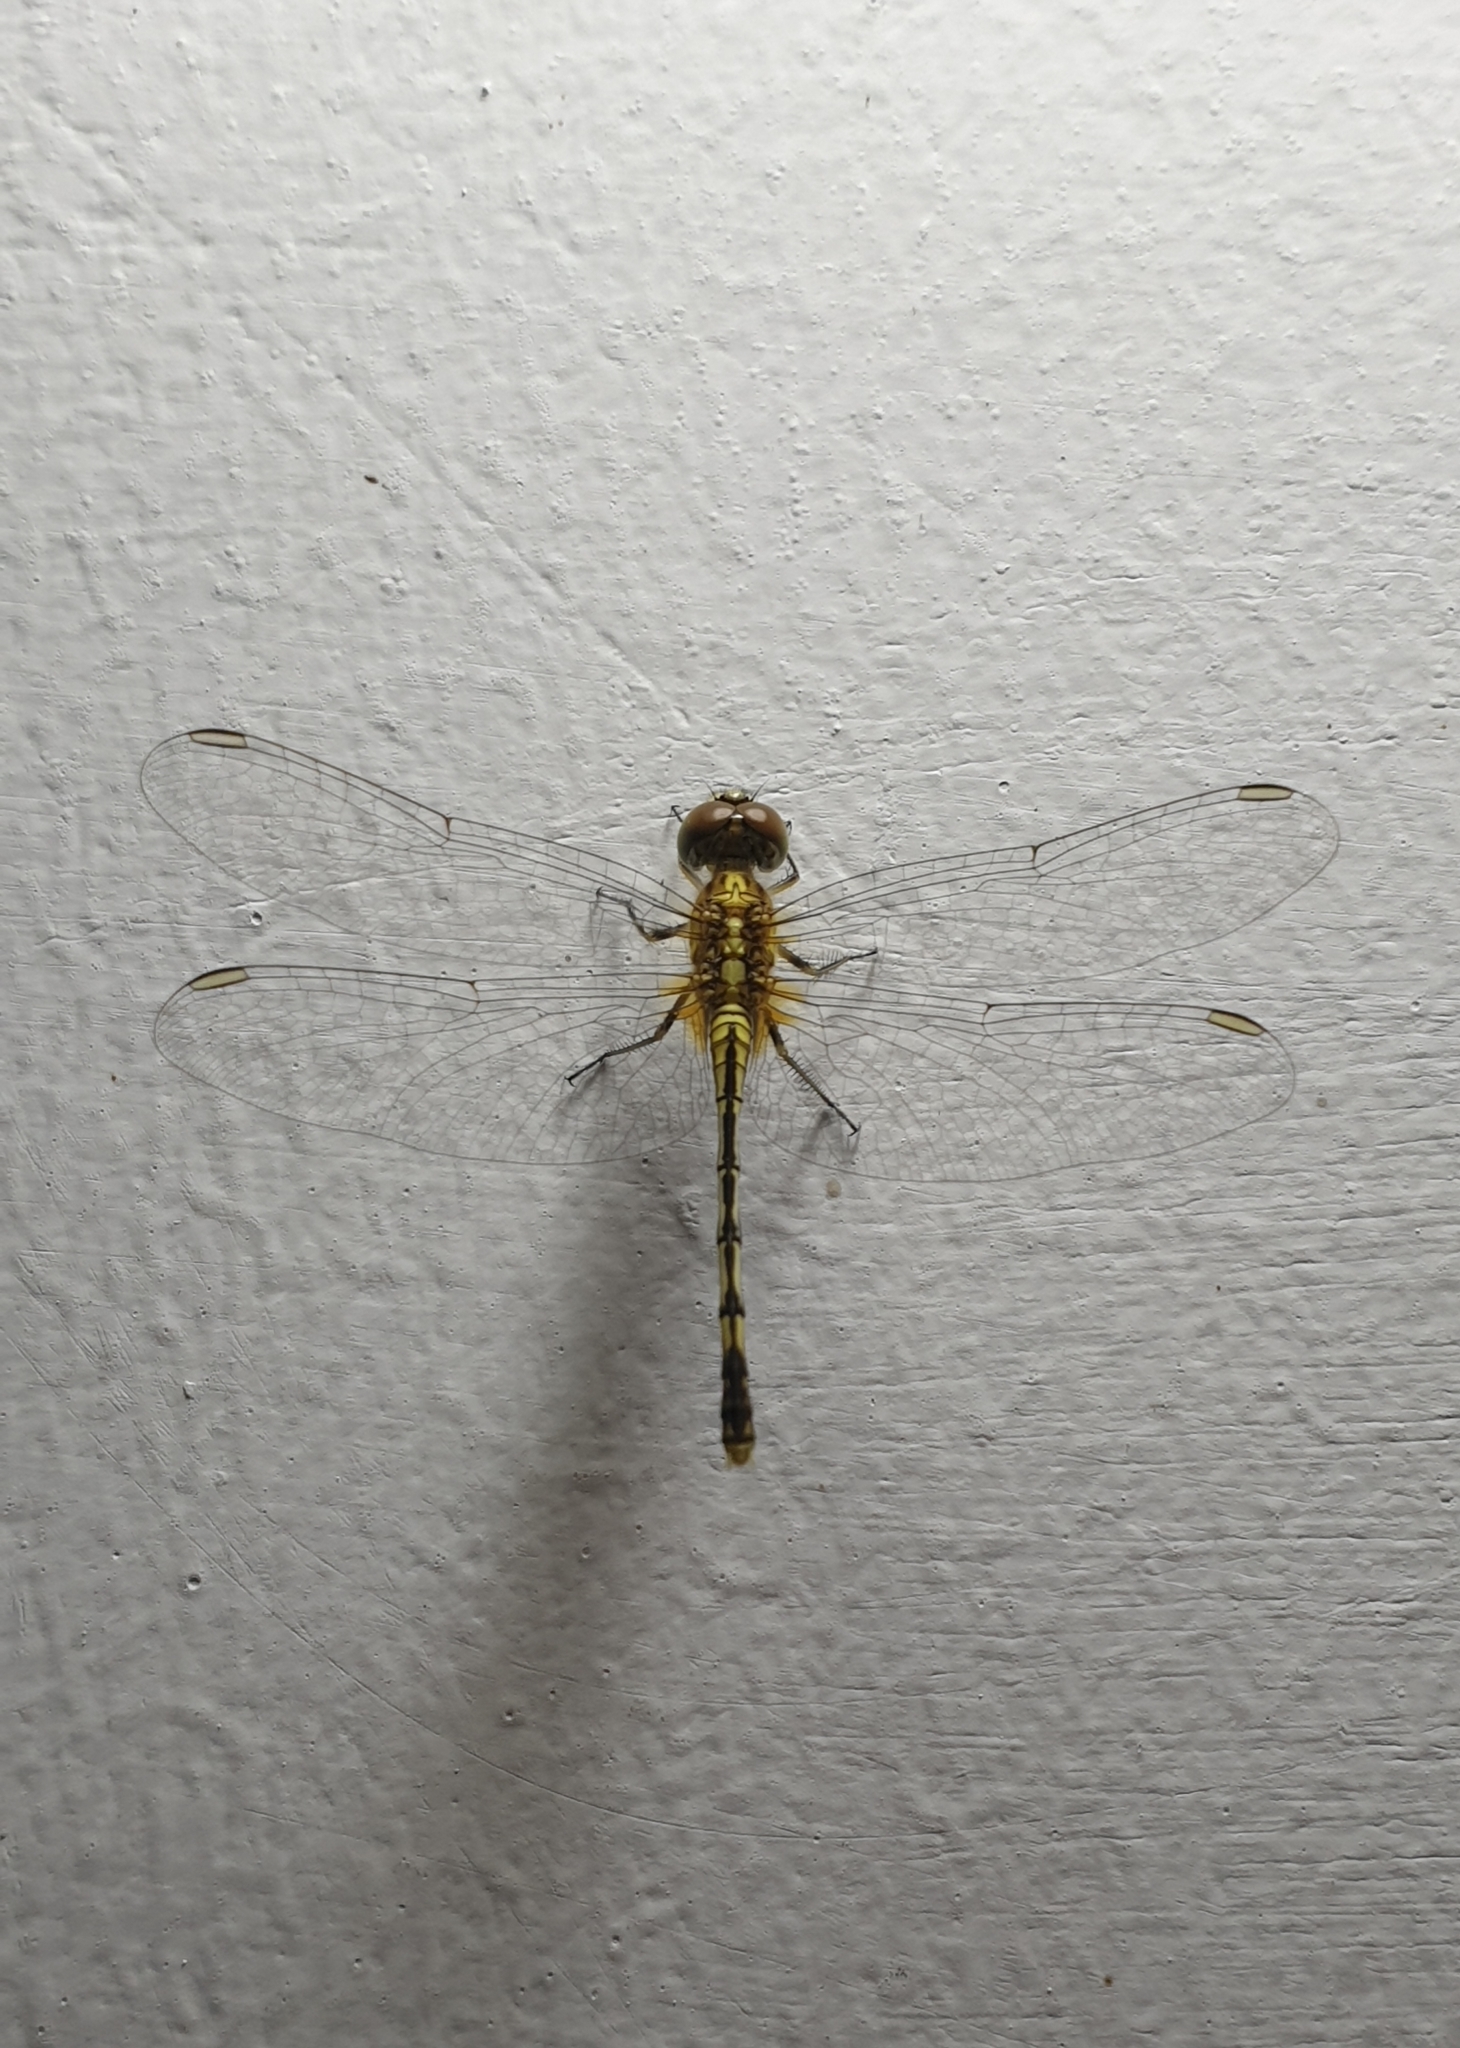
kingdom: Animalia
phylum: Arthropoda
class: Insecta
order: Odonata
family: Libellulidae
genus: Diplacodes
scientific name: Diplacodes trivialis
